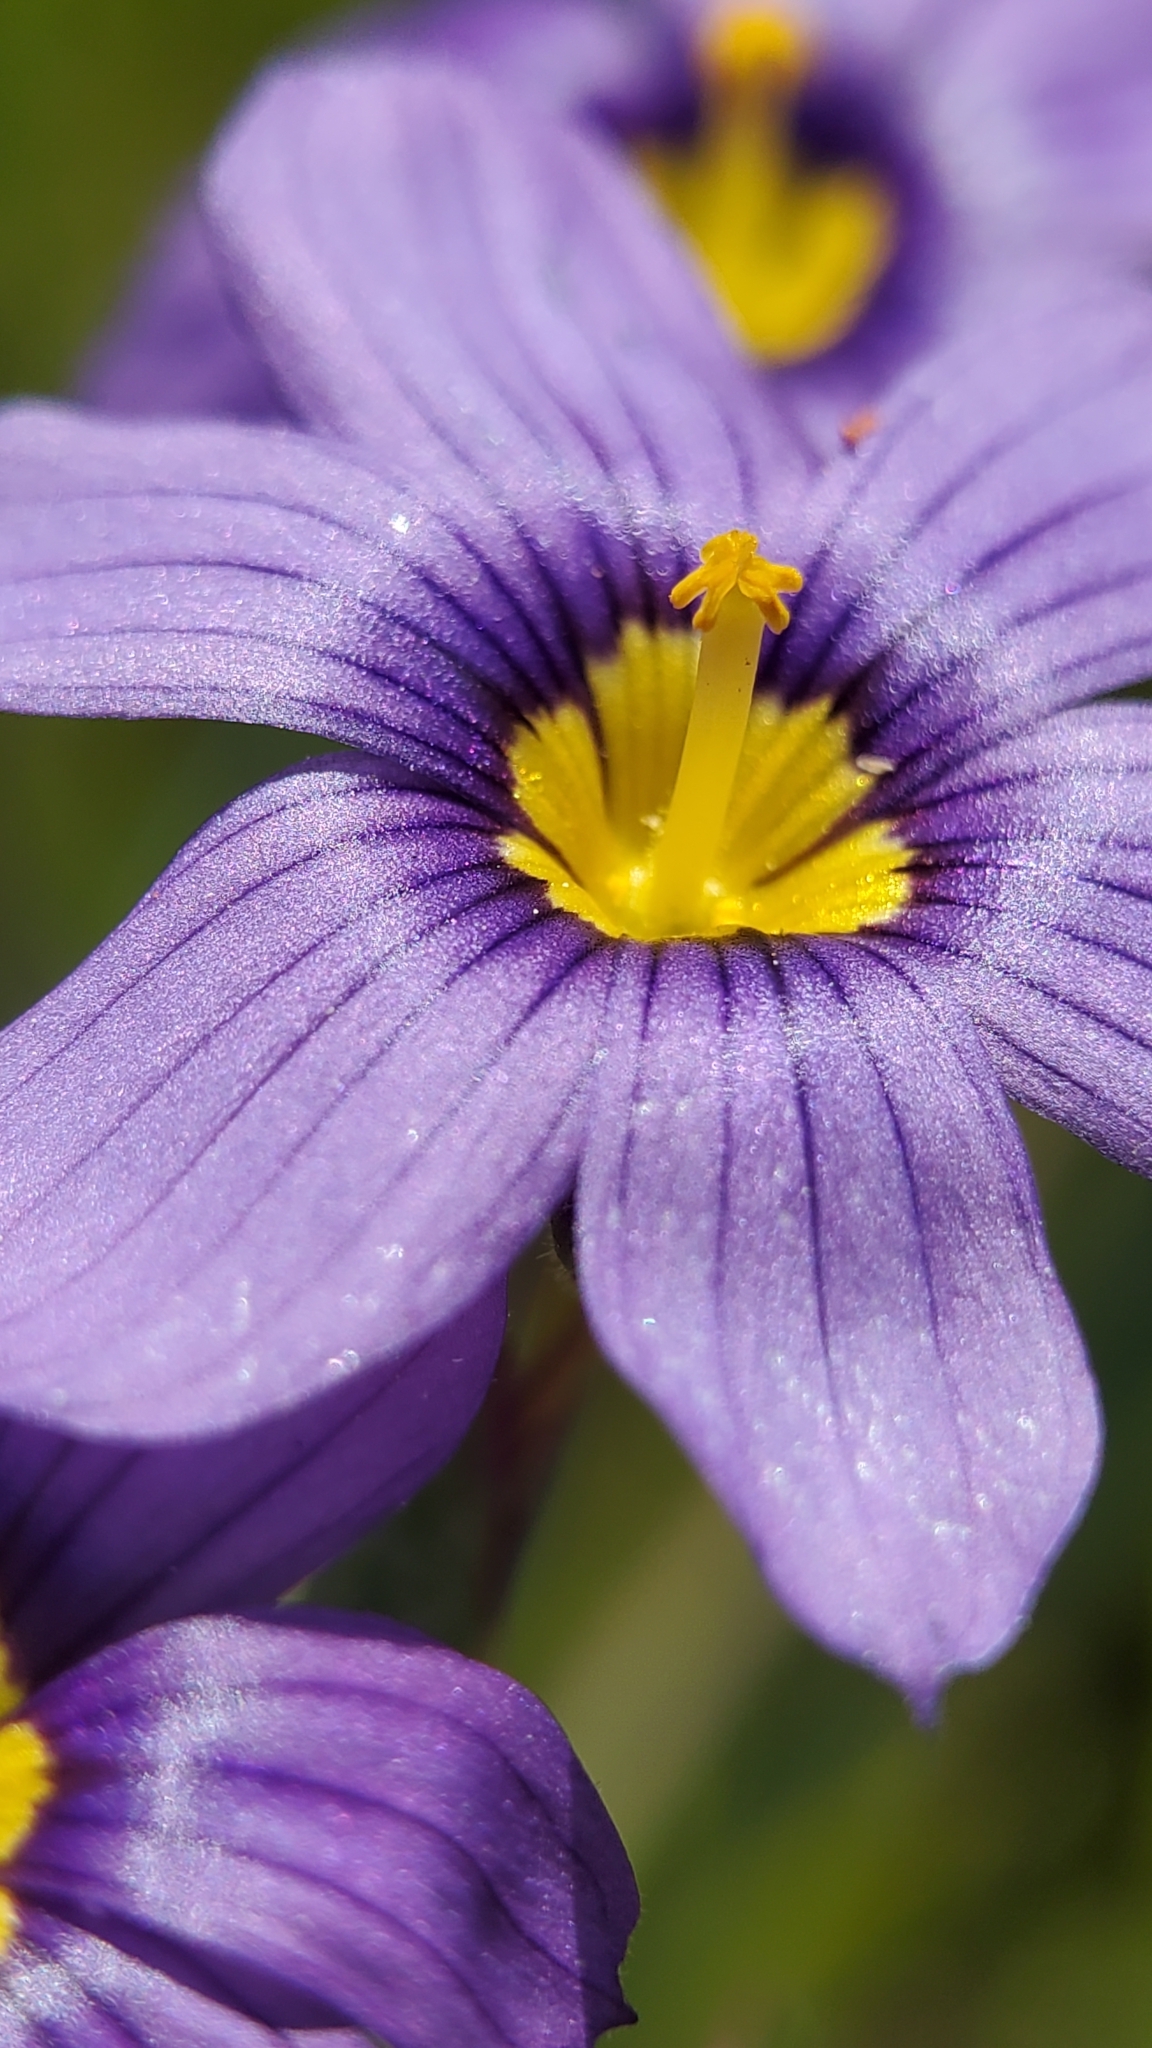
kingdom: Plantae
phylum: Tracheophyta
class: Liliopsida
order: Asparagales
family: Iridaceae
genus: Sisyrinchium
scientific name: Sisyrinchium bellum
